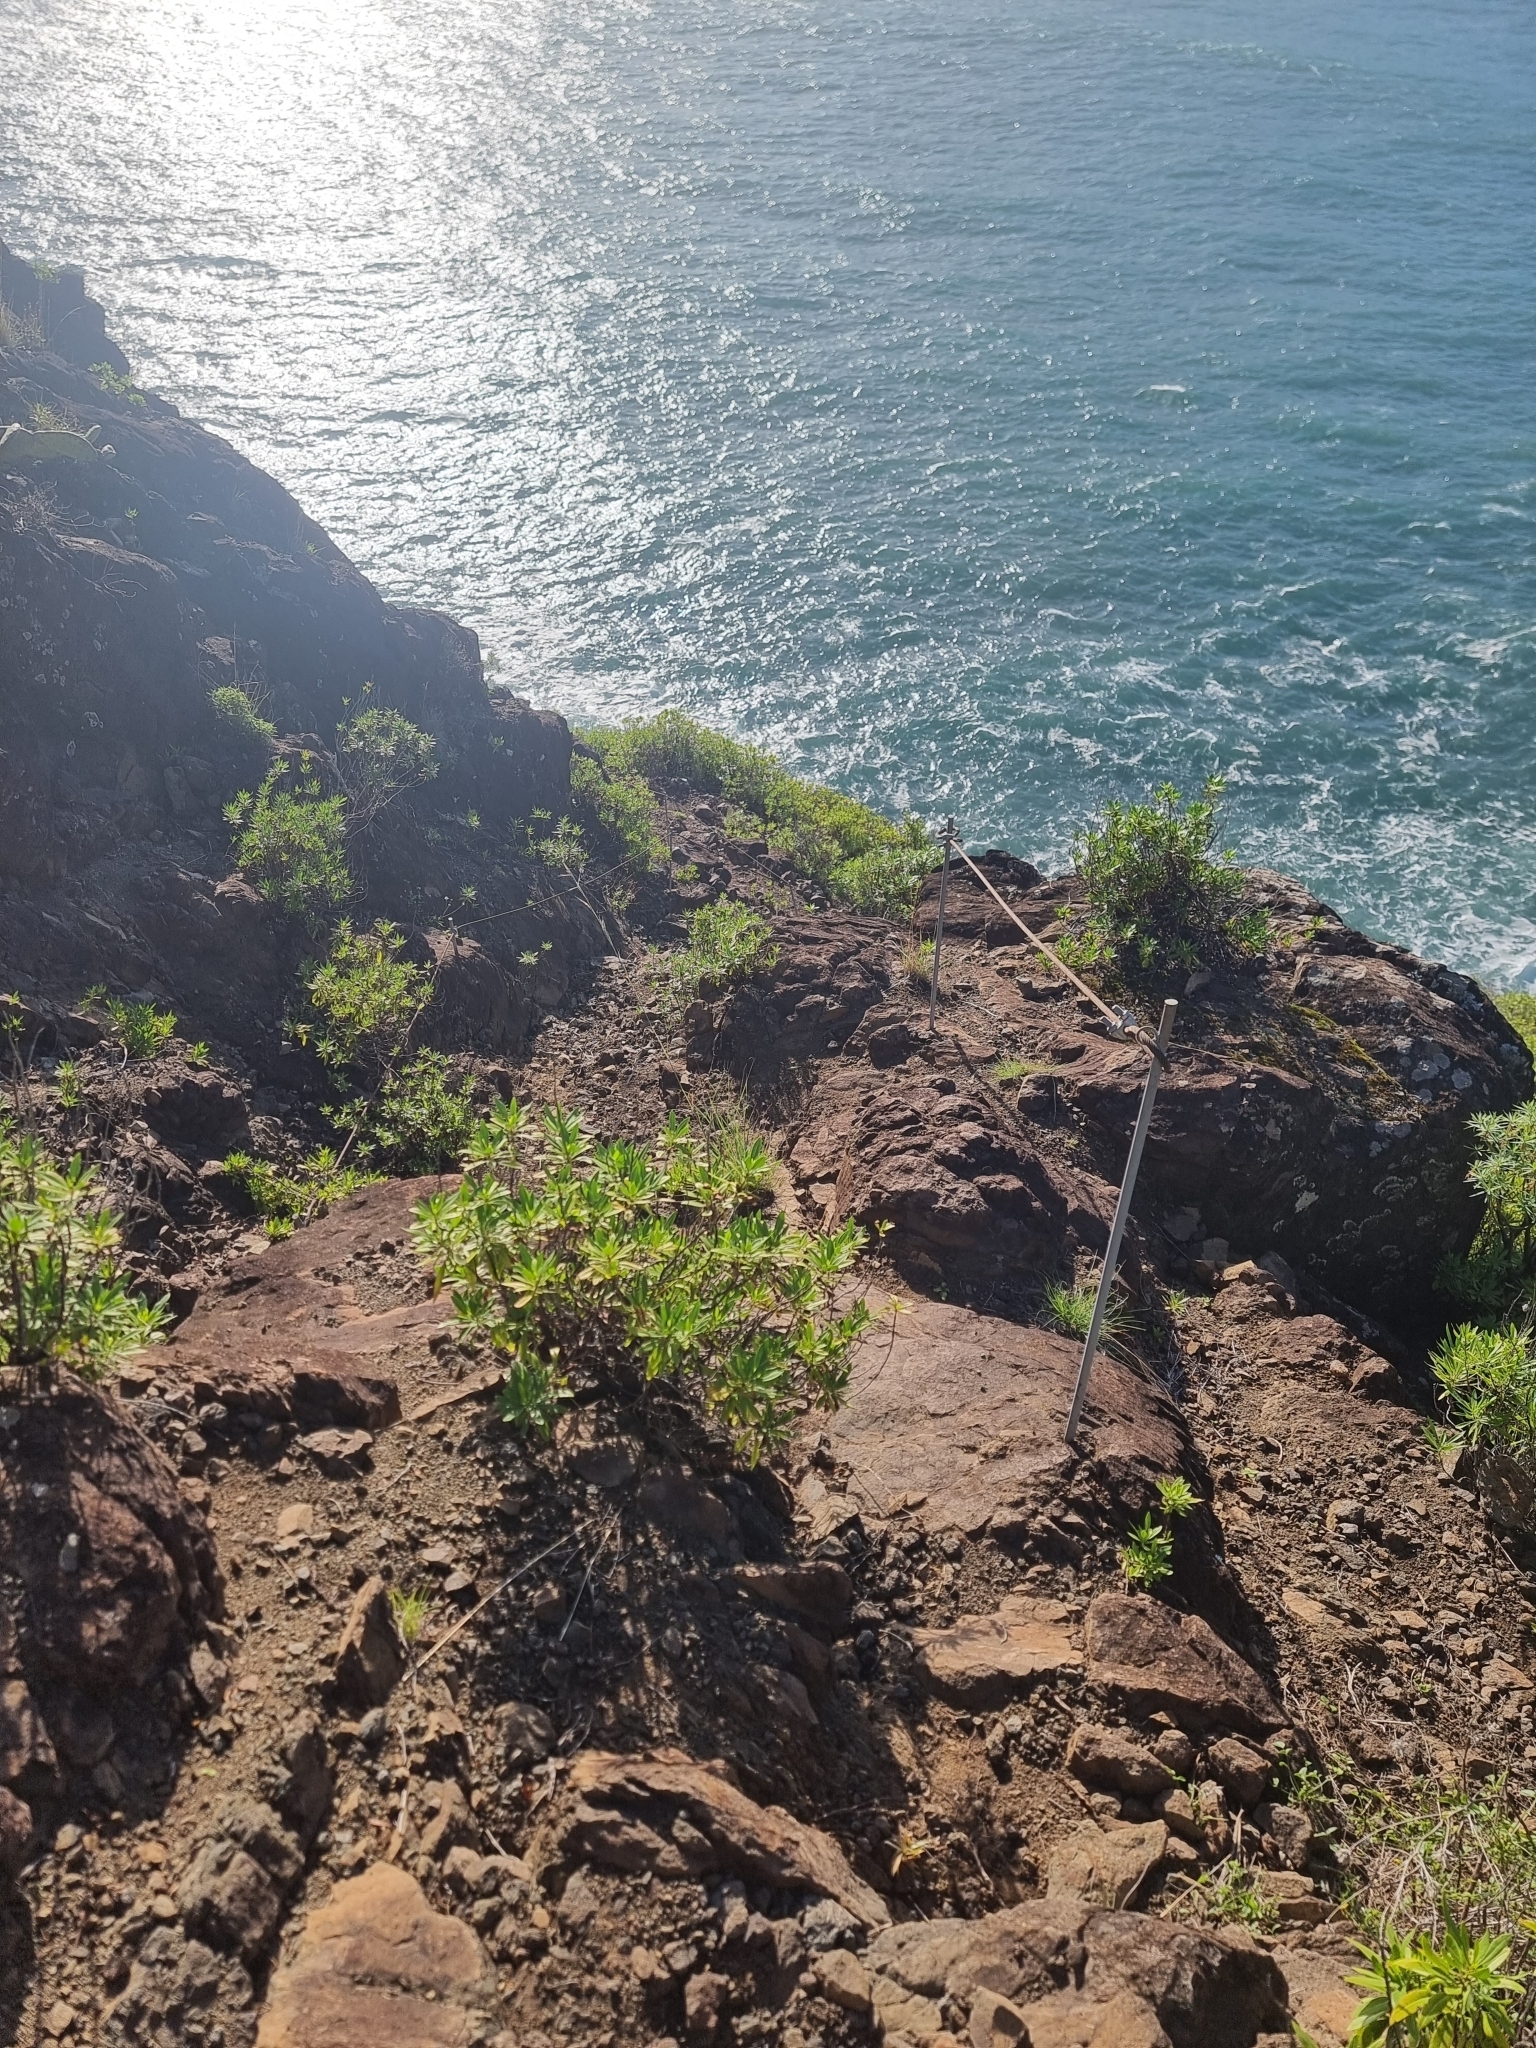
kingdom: Plantae
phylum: Tracheophyta
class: Magnoliopsida
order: Lamiales
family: Plantaginaceae
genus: Globularia
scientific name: Globularia salicina
